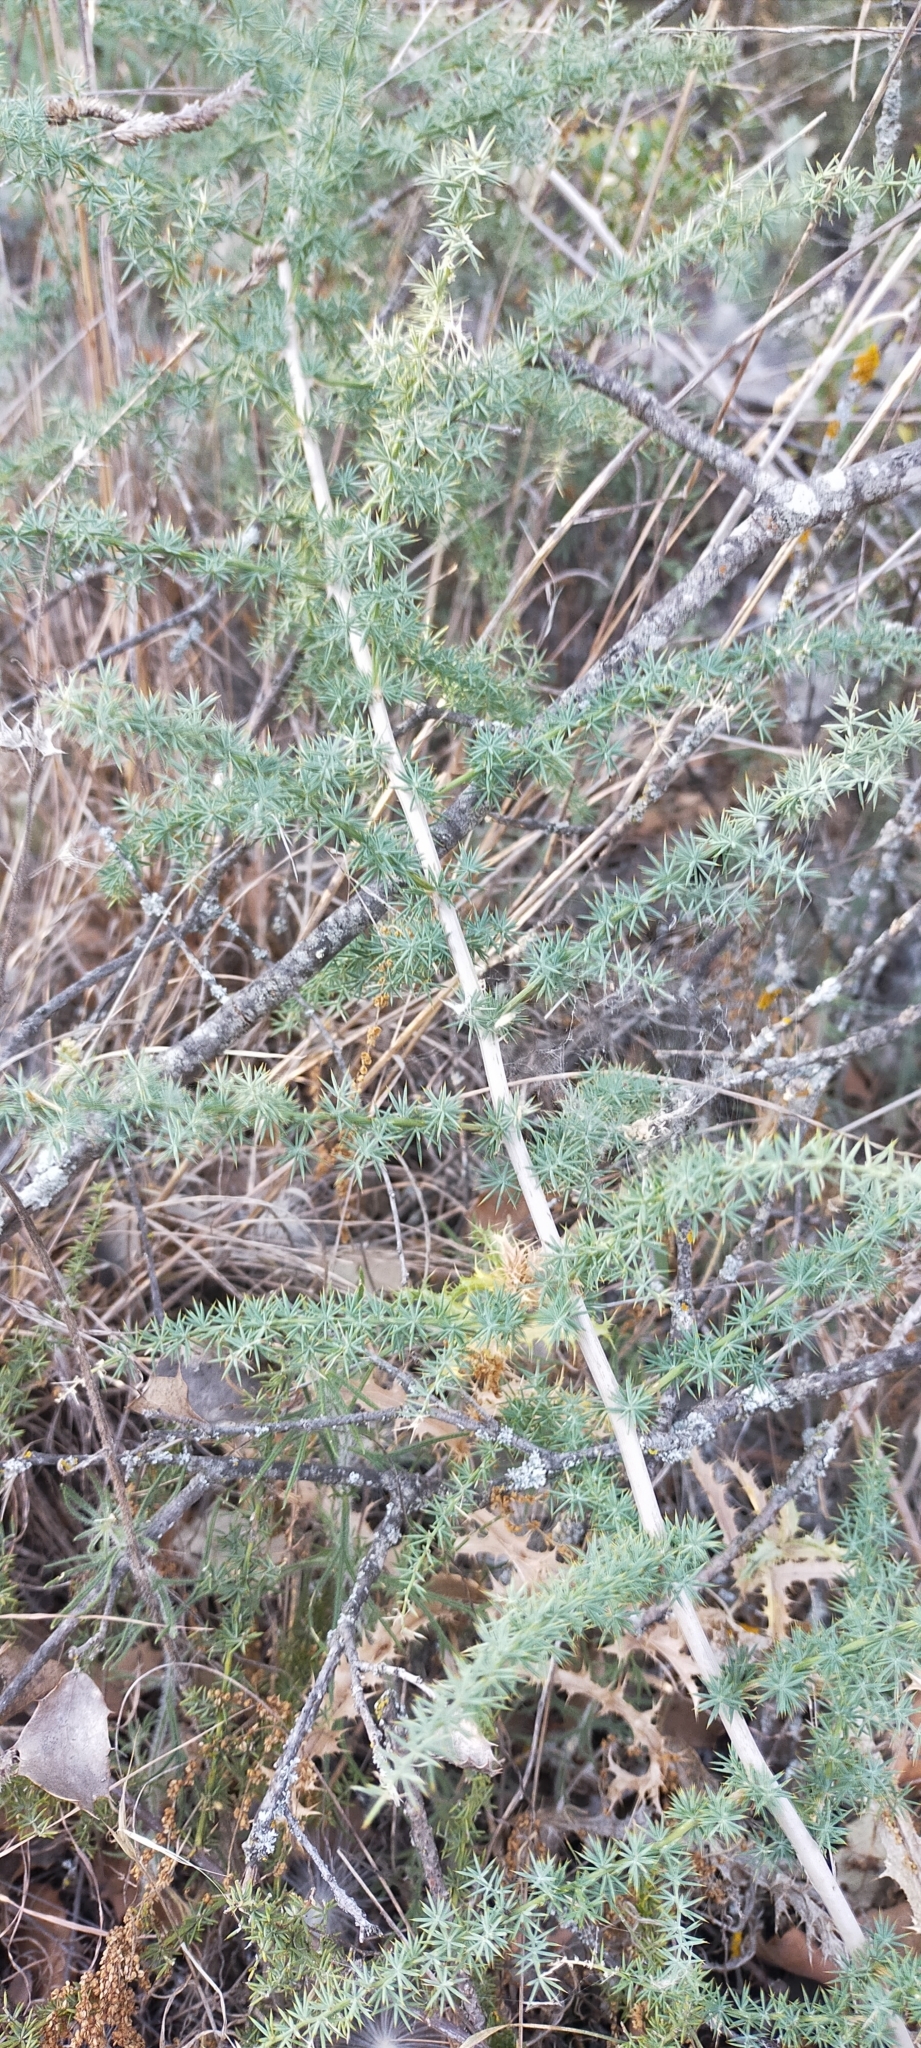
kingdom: Plantae
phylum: Tracheophyta
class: Liliopsida
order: Asparagales
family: Asparagaceae
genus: Asparagus
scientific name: Asparagus acutifolius
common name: Wild asparagus
